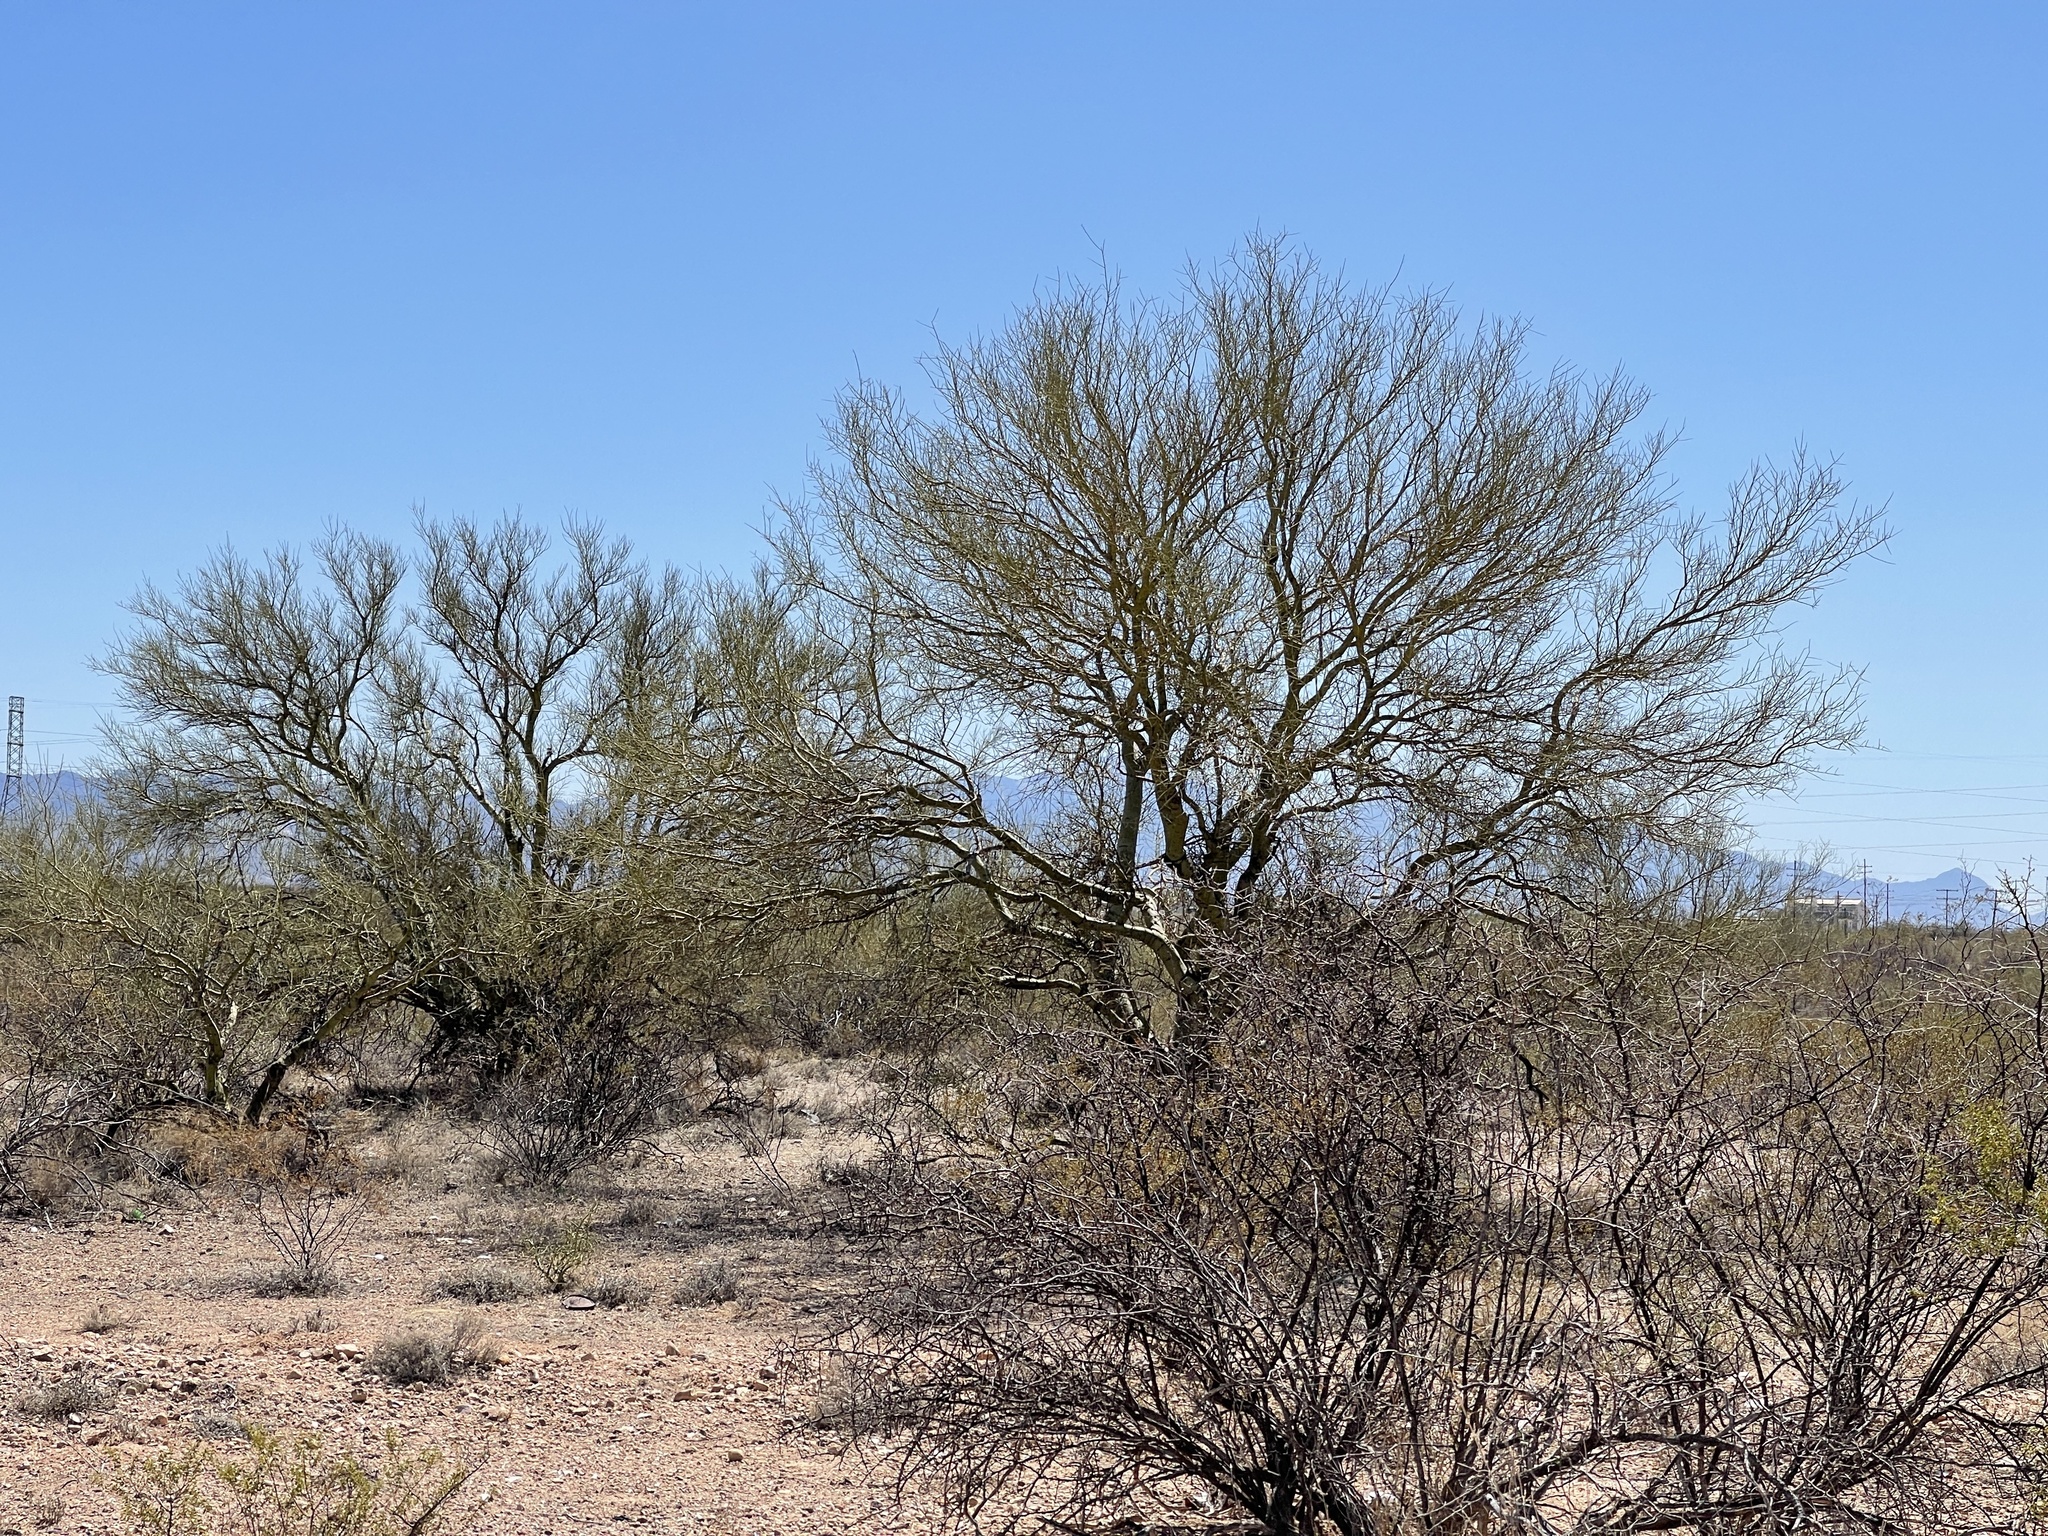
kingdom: Plantae
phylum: Tracheophyta
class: Magnoliopsida
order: Fabales
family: Fabaceae
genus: Parkinsonia
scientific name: Parkinsonia microphylla
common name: Yellow paloverde
